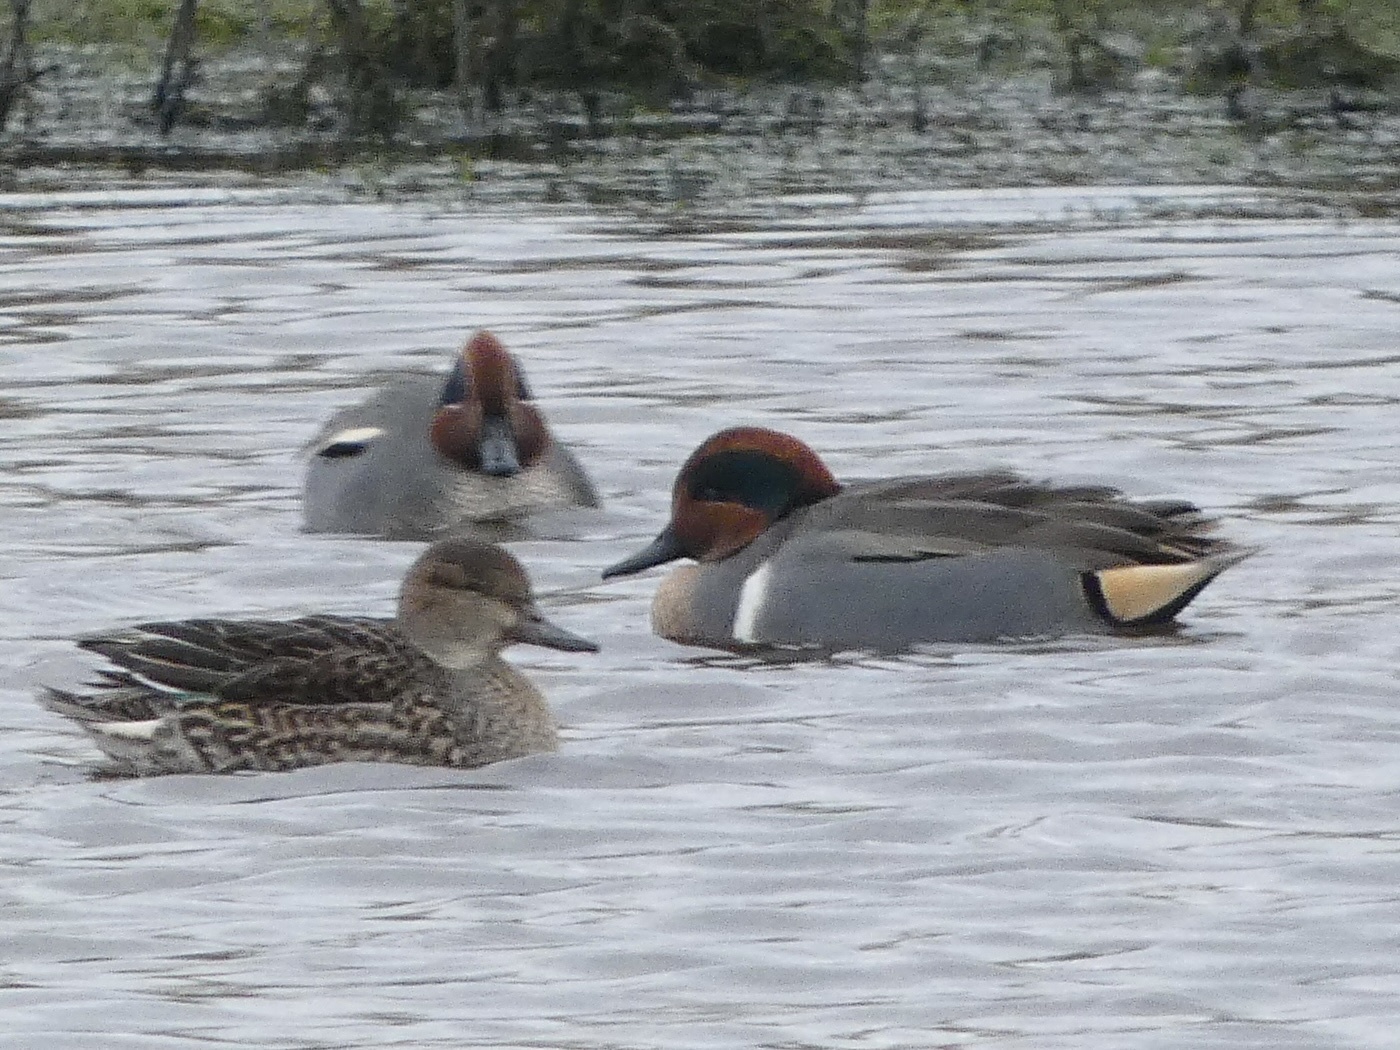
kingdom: Animalia
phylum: Chordata
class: Aves
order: Anseriformes
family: Anatidae
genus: Anas
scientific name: Anas carolinensis
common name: Green-winged teal
